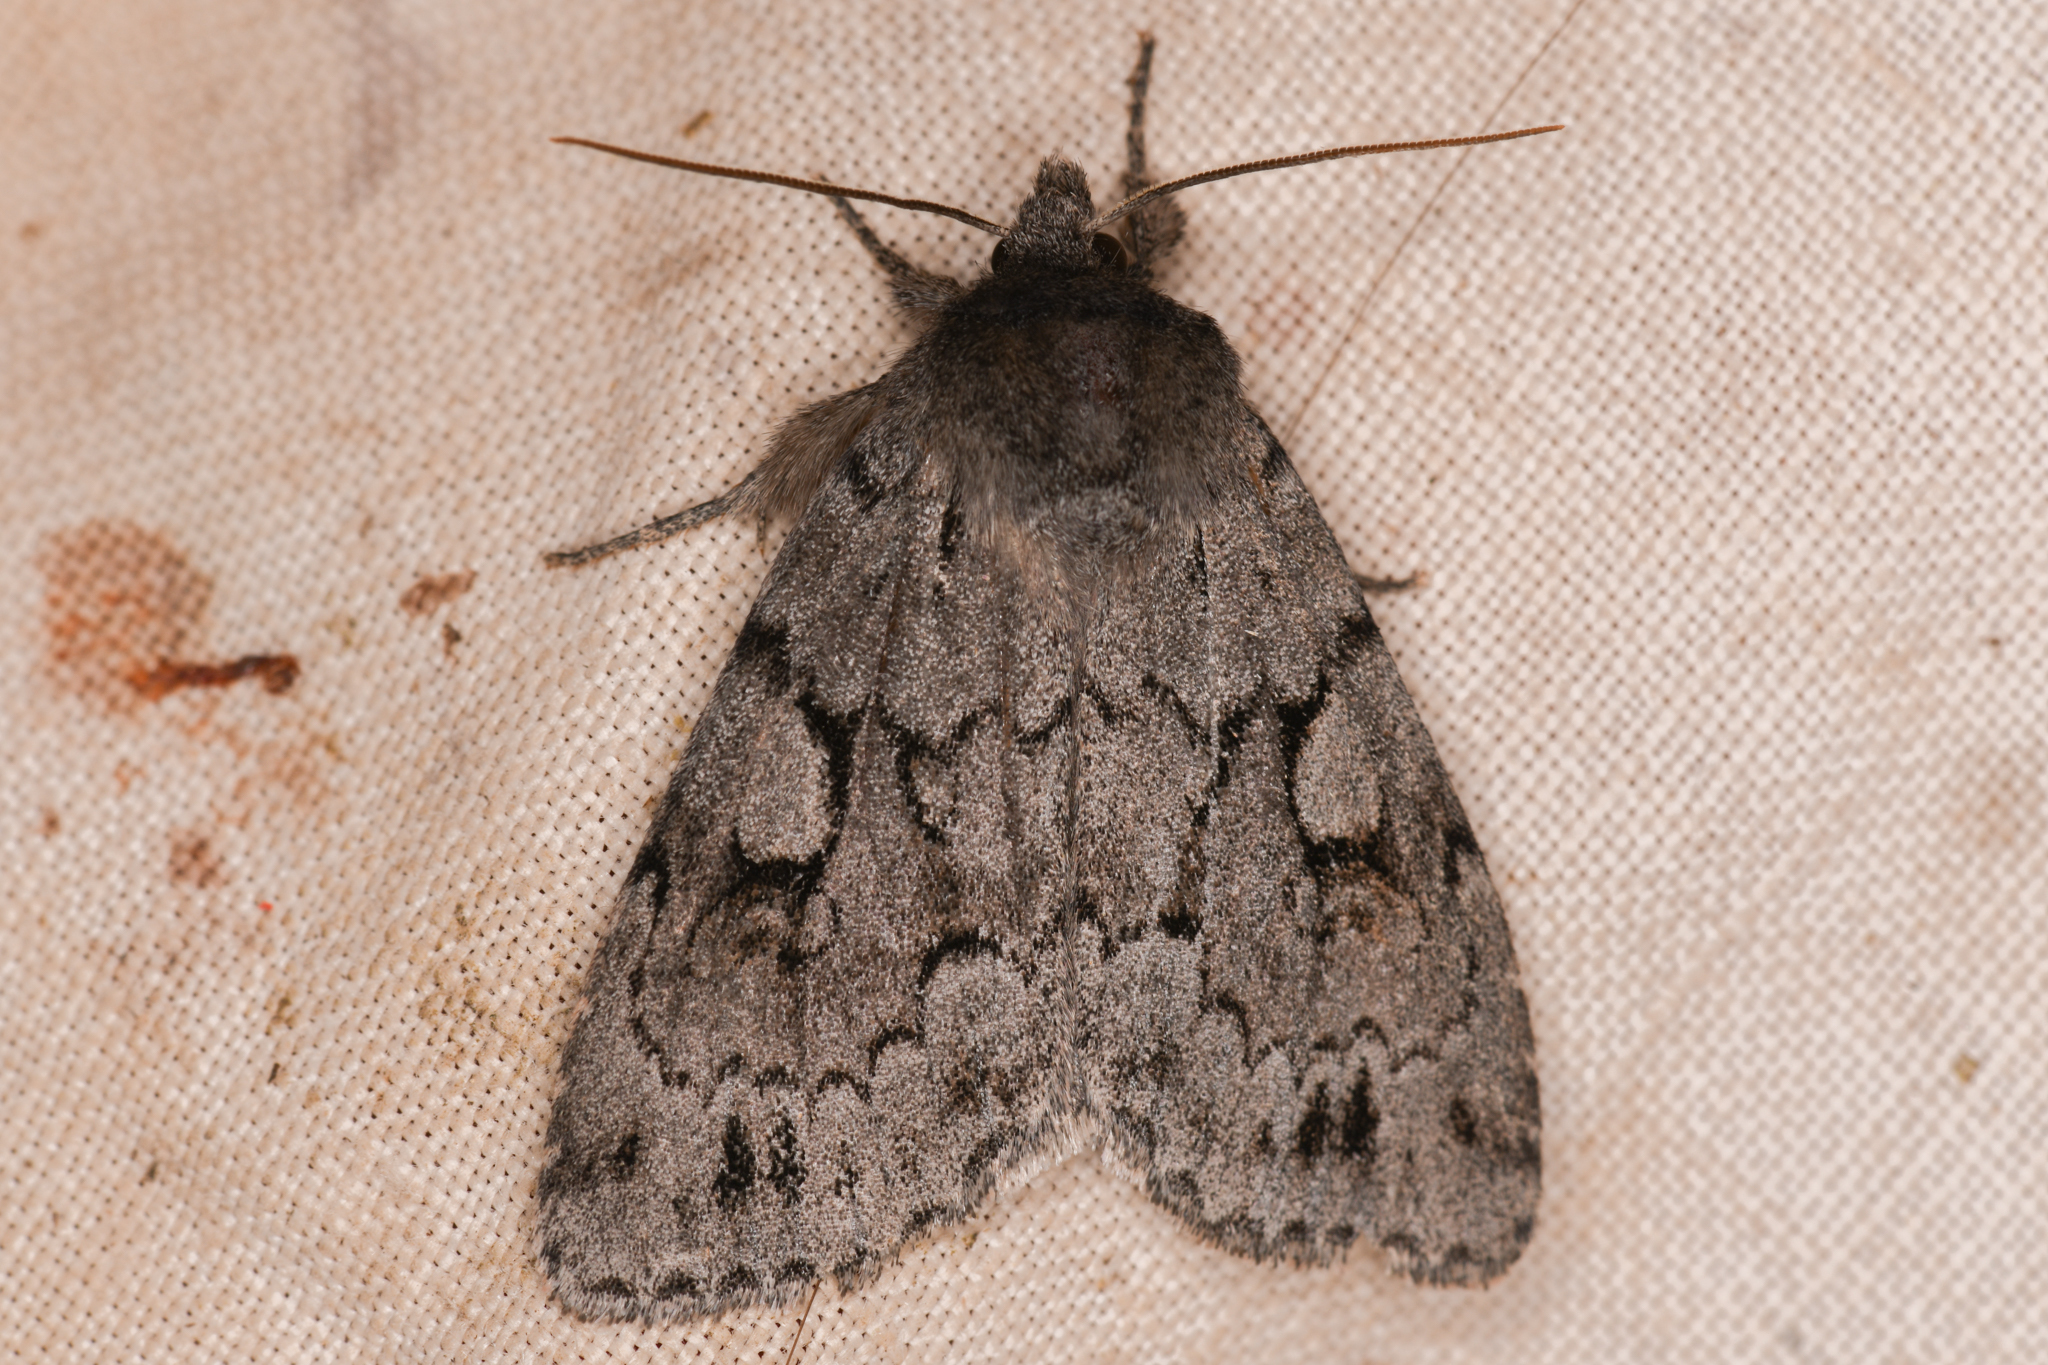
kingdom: Animalia
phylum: Arthropoda
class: Insecta
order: Lepidoptera
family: Noctuidae
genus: Xestia
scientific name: Xestia fabulosa
